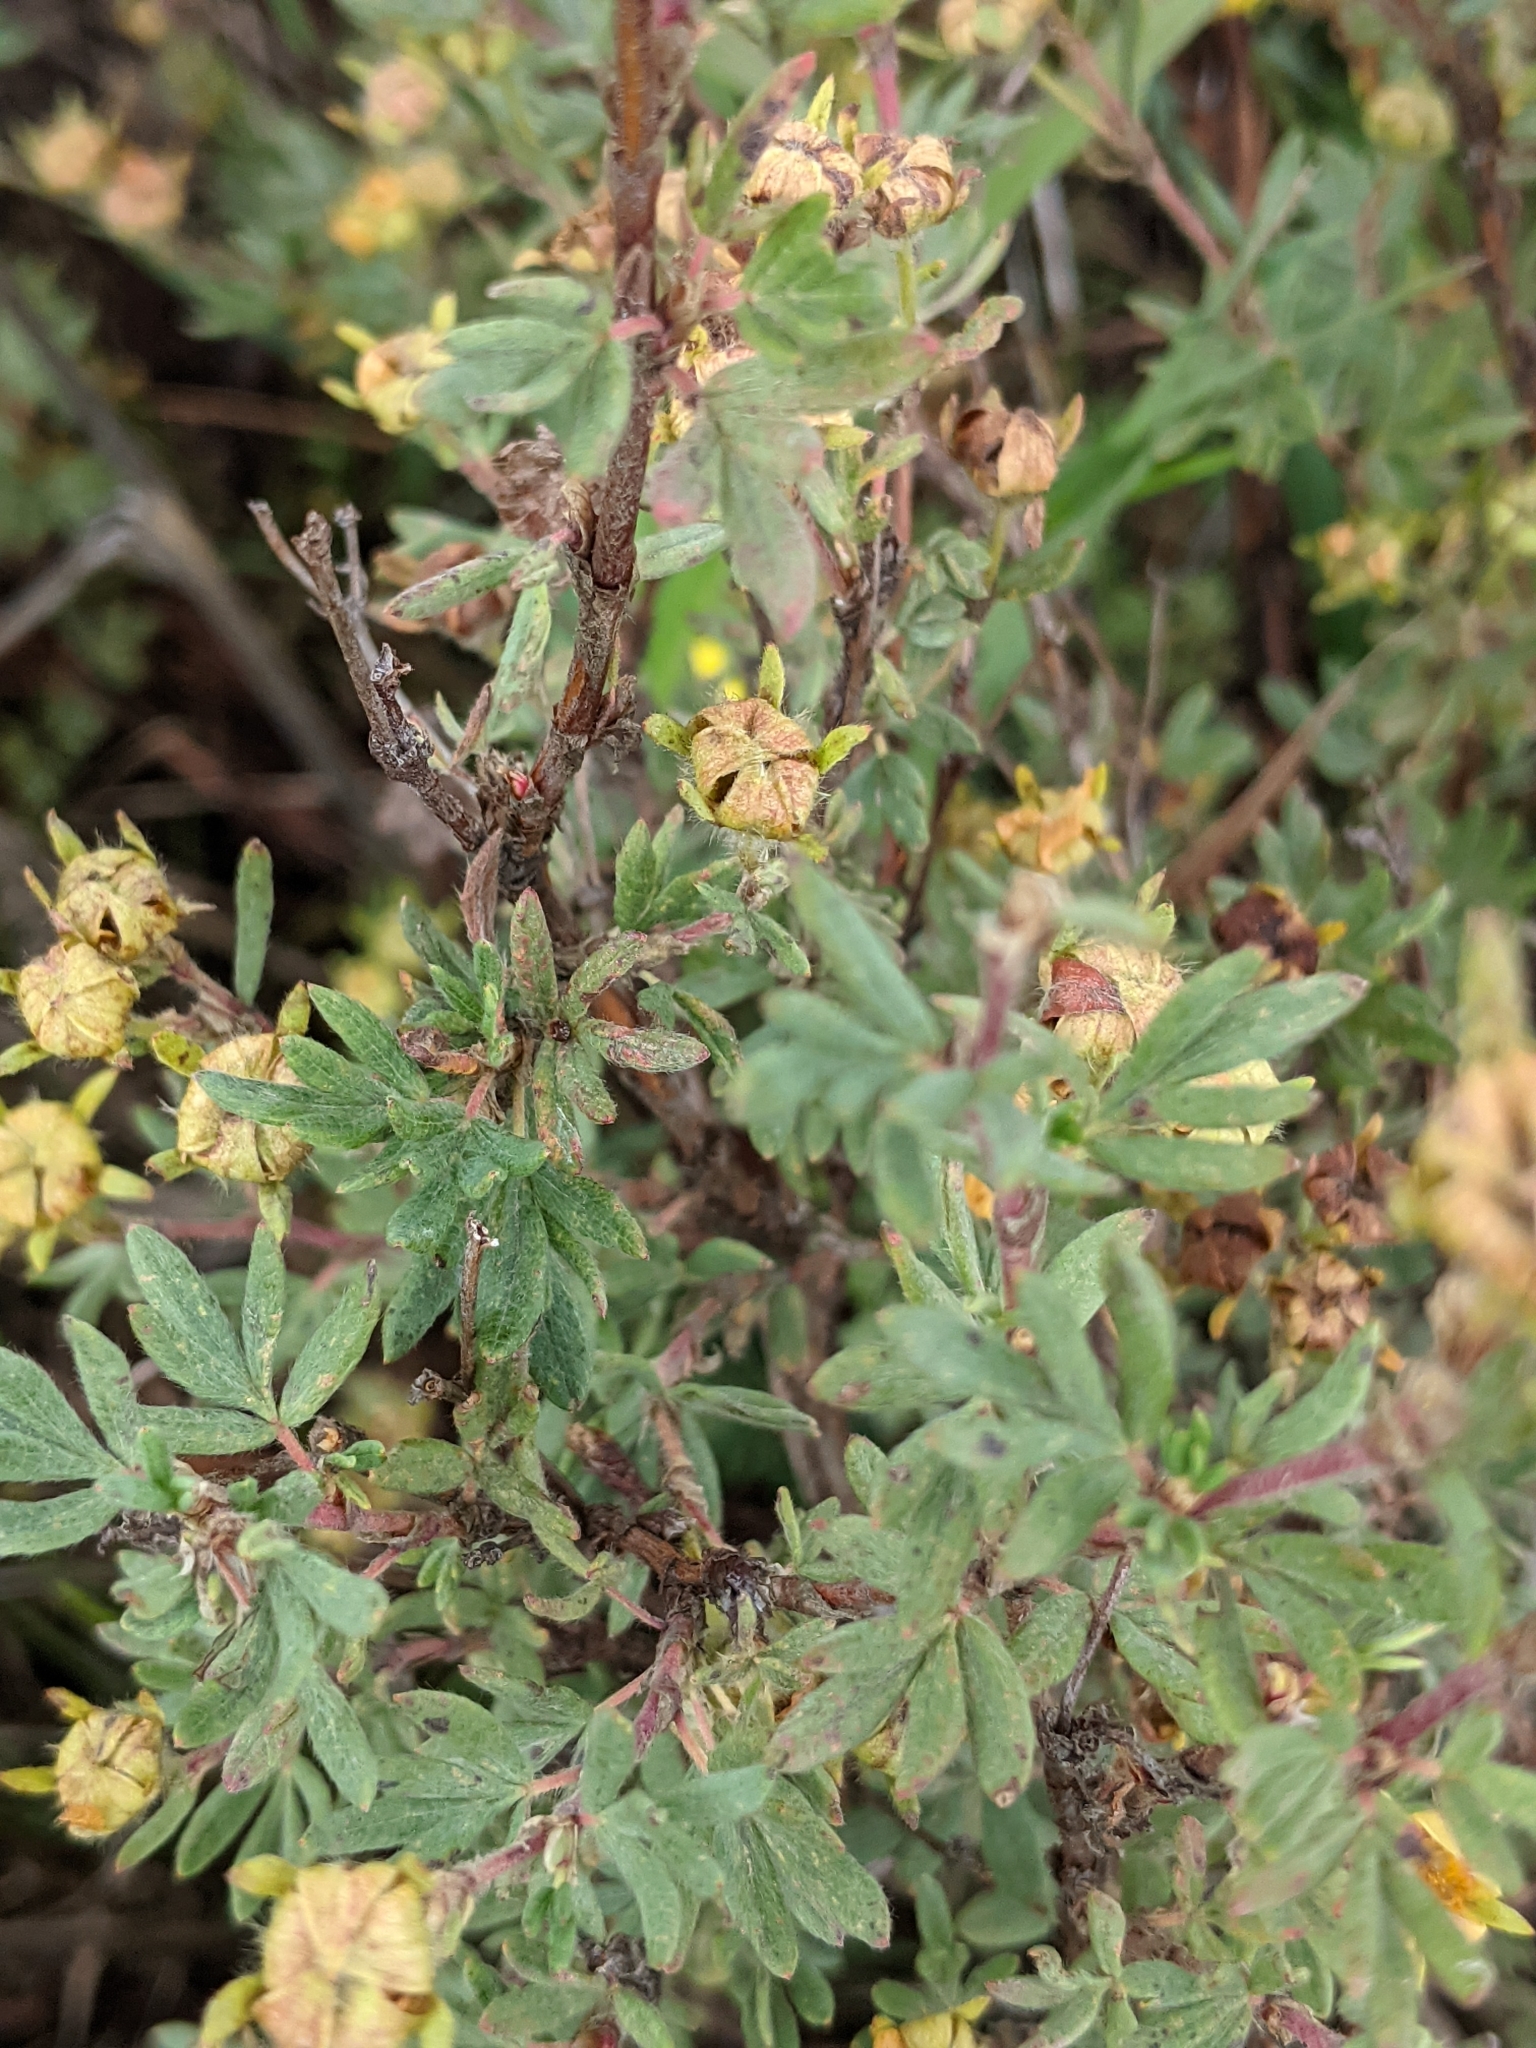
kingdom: Plantae
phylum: Tracheophyta
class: Magnoliopsida
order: Rosales
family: Rosaceae
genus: Dasiphora
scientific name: Dasiphora fruticosa
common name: Shrubby cinquefoil
